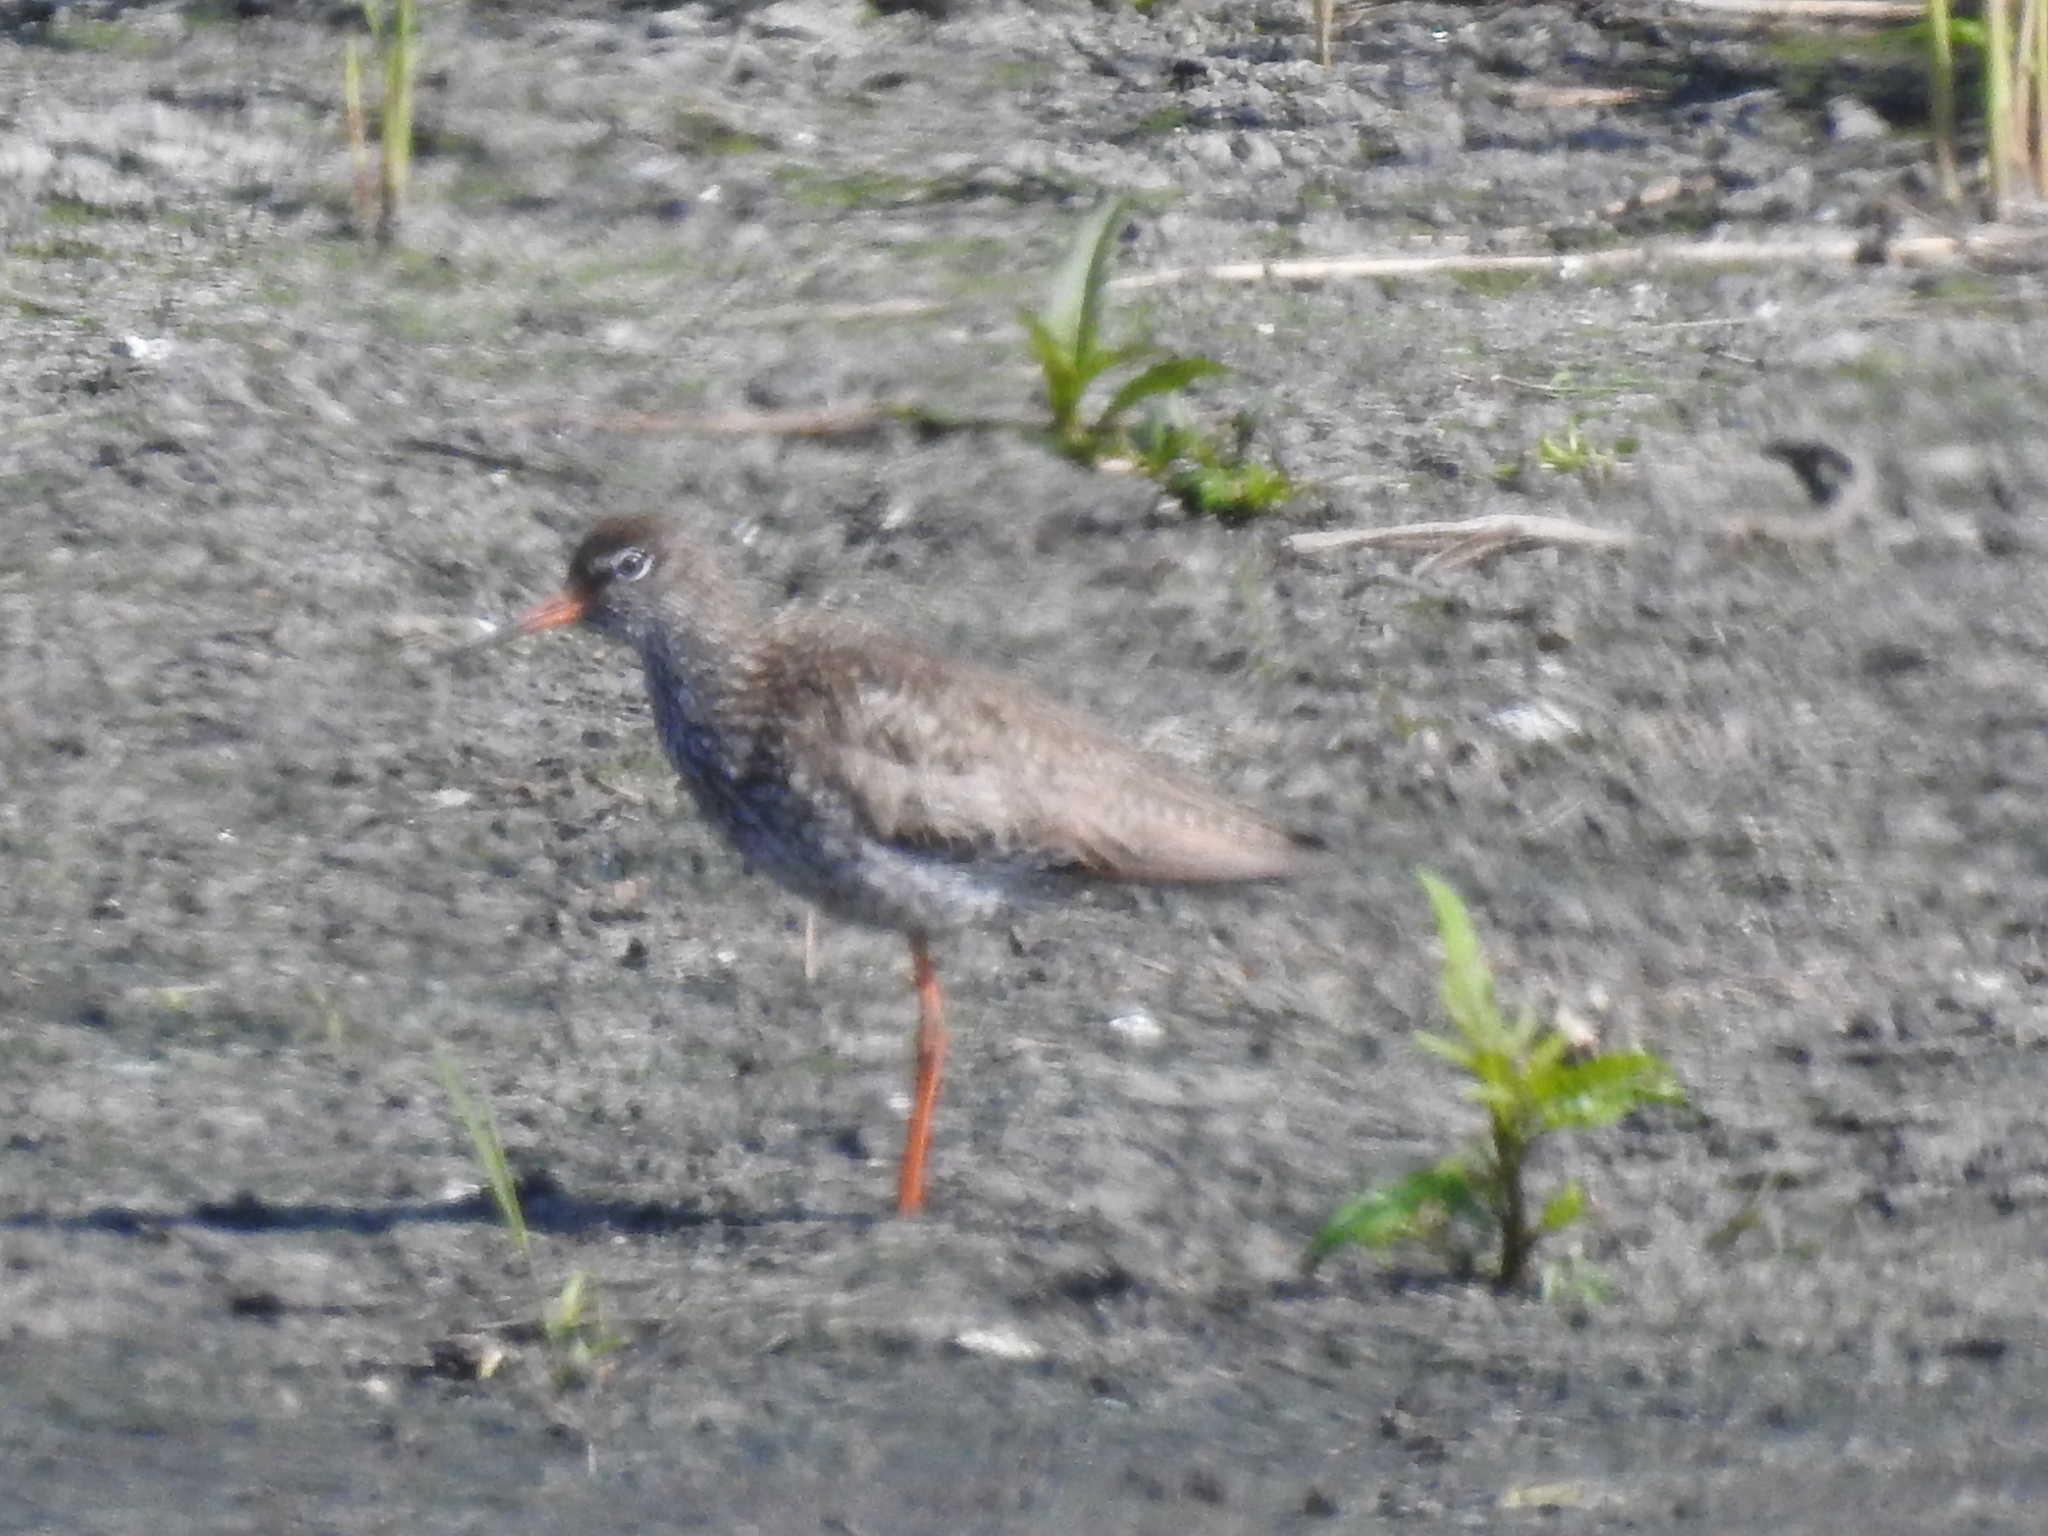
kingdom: Animalia
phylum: Chordata
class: Aves
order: Charadriiformes
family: Scolopacidae
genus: Tringa
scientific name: Tringa totanus
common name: Common redshank
